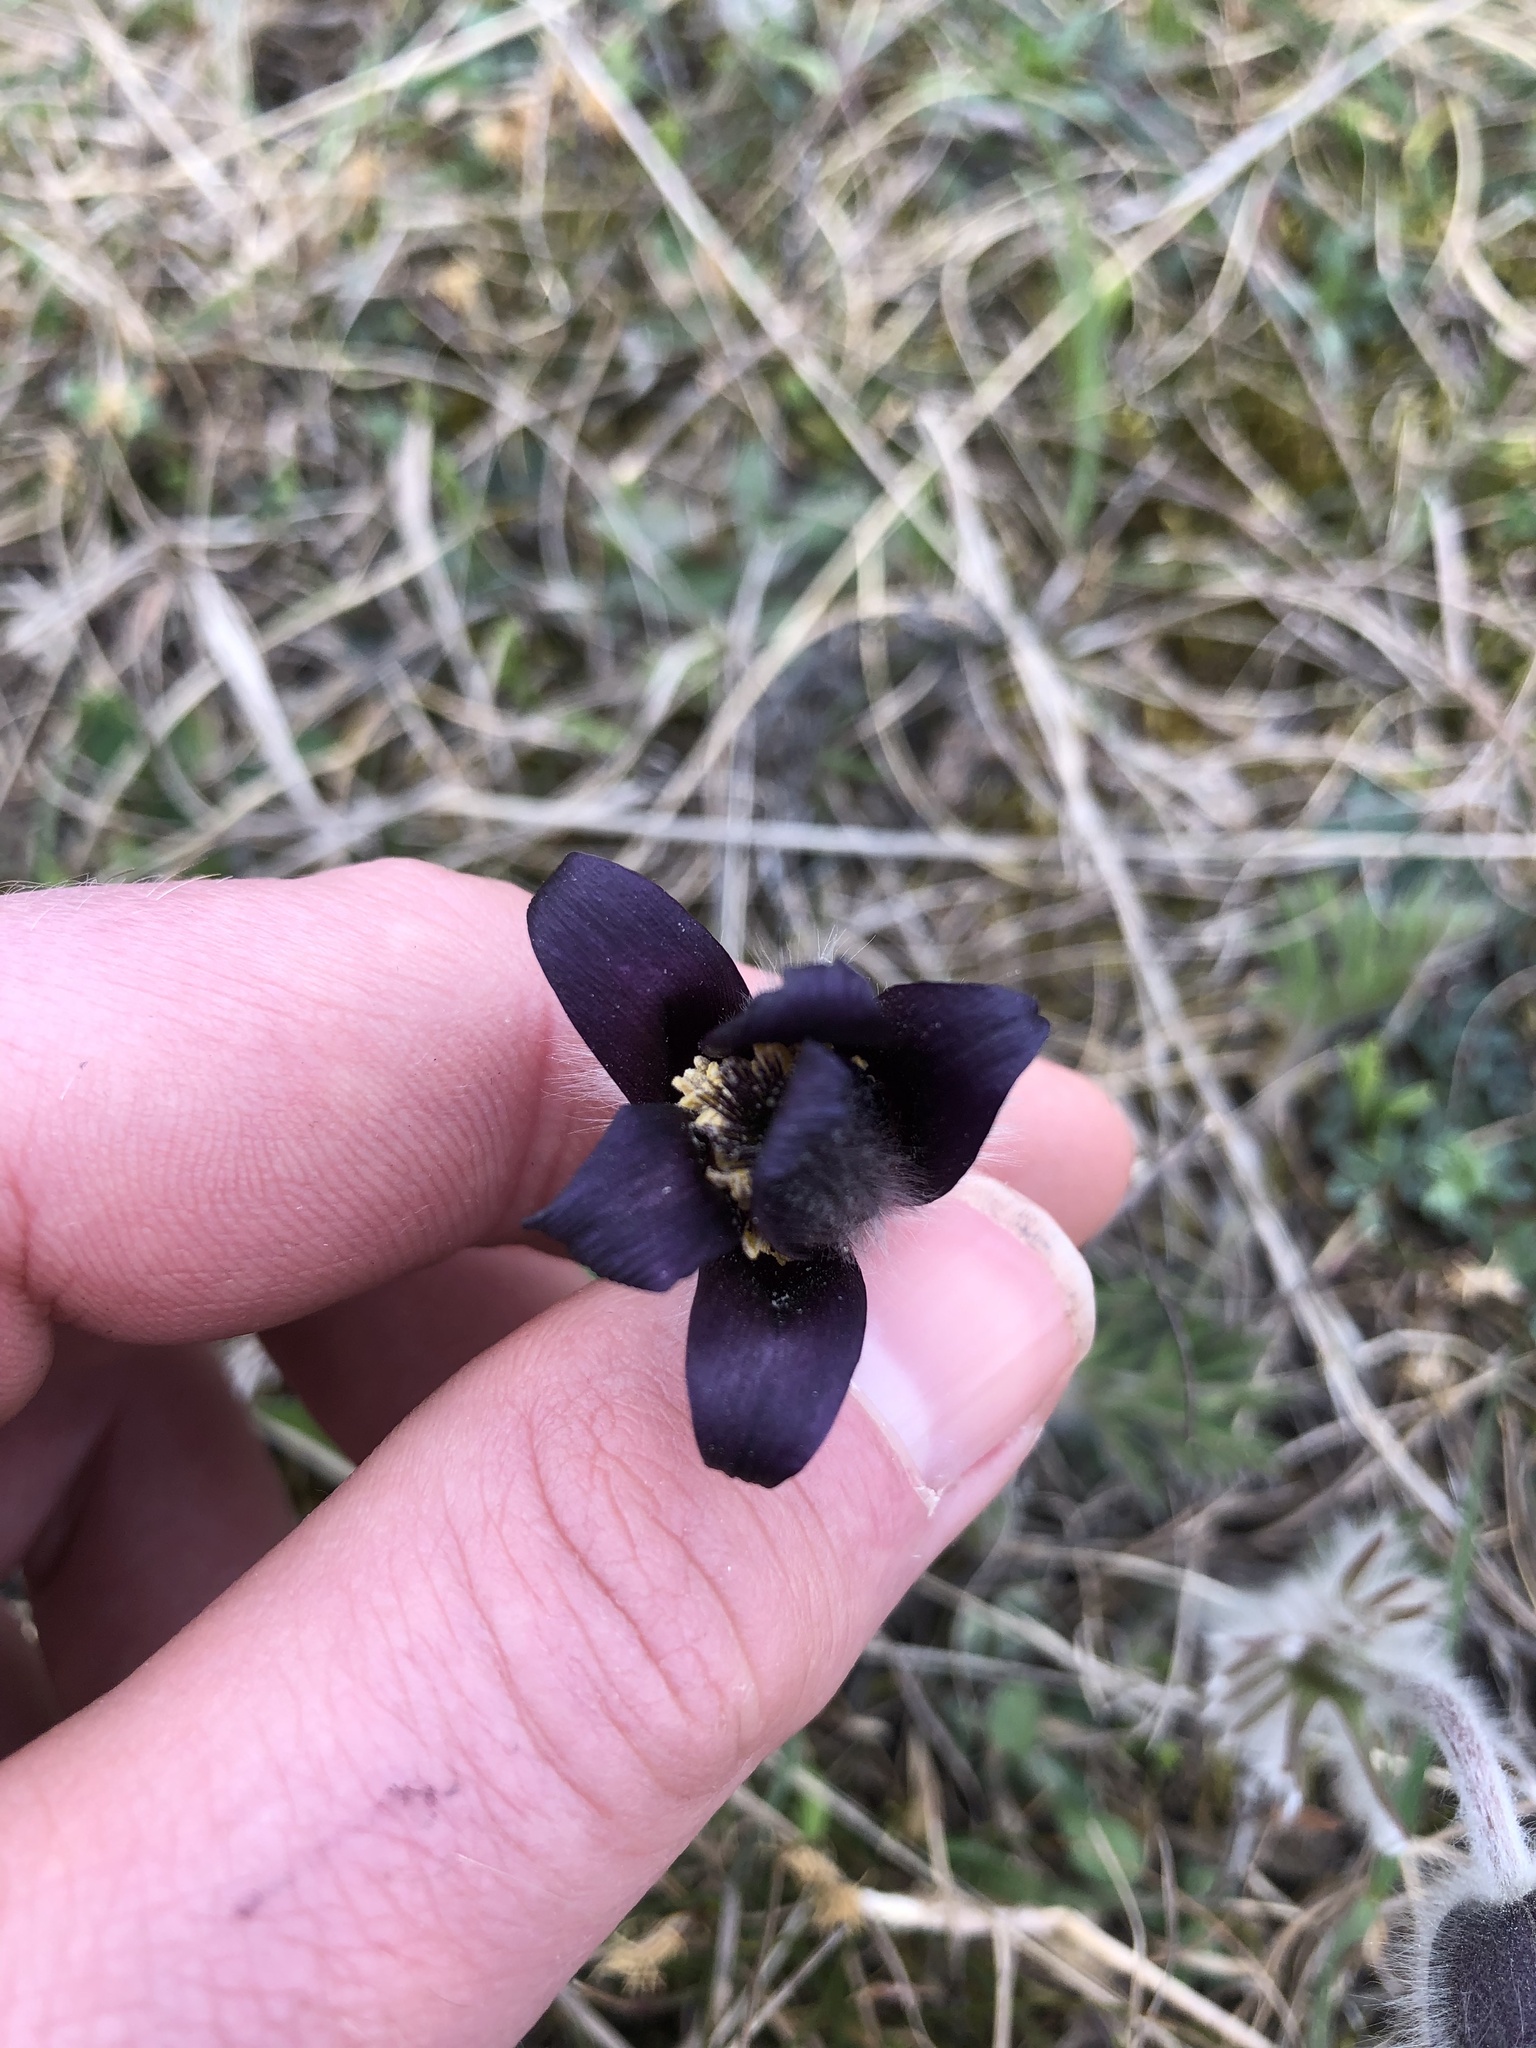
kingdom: Plantae
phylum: Tracheophyta
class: Magnoliopsida
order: Ranunculales
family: Ranunculaceae
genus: Pulsatilla
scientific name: Pulsatilla pratensis
